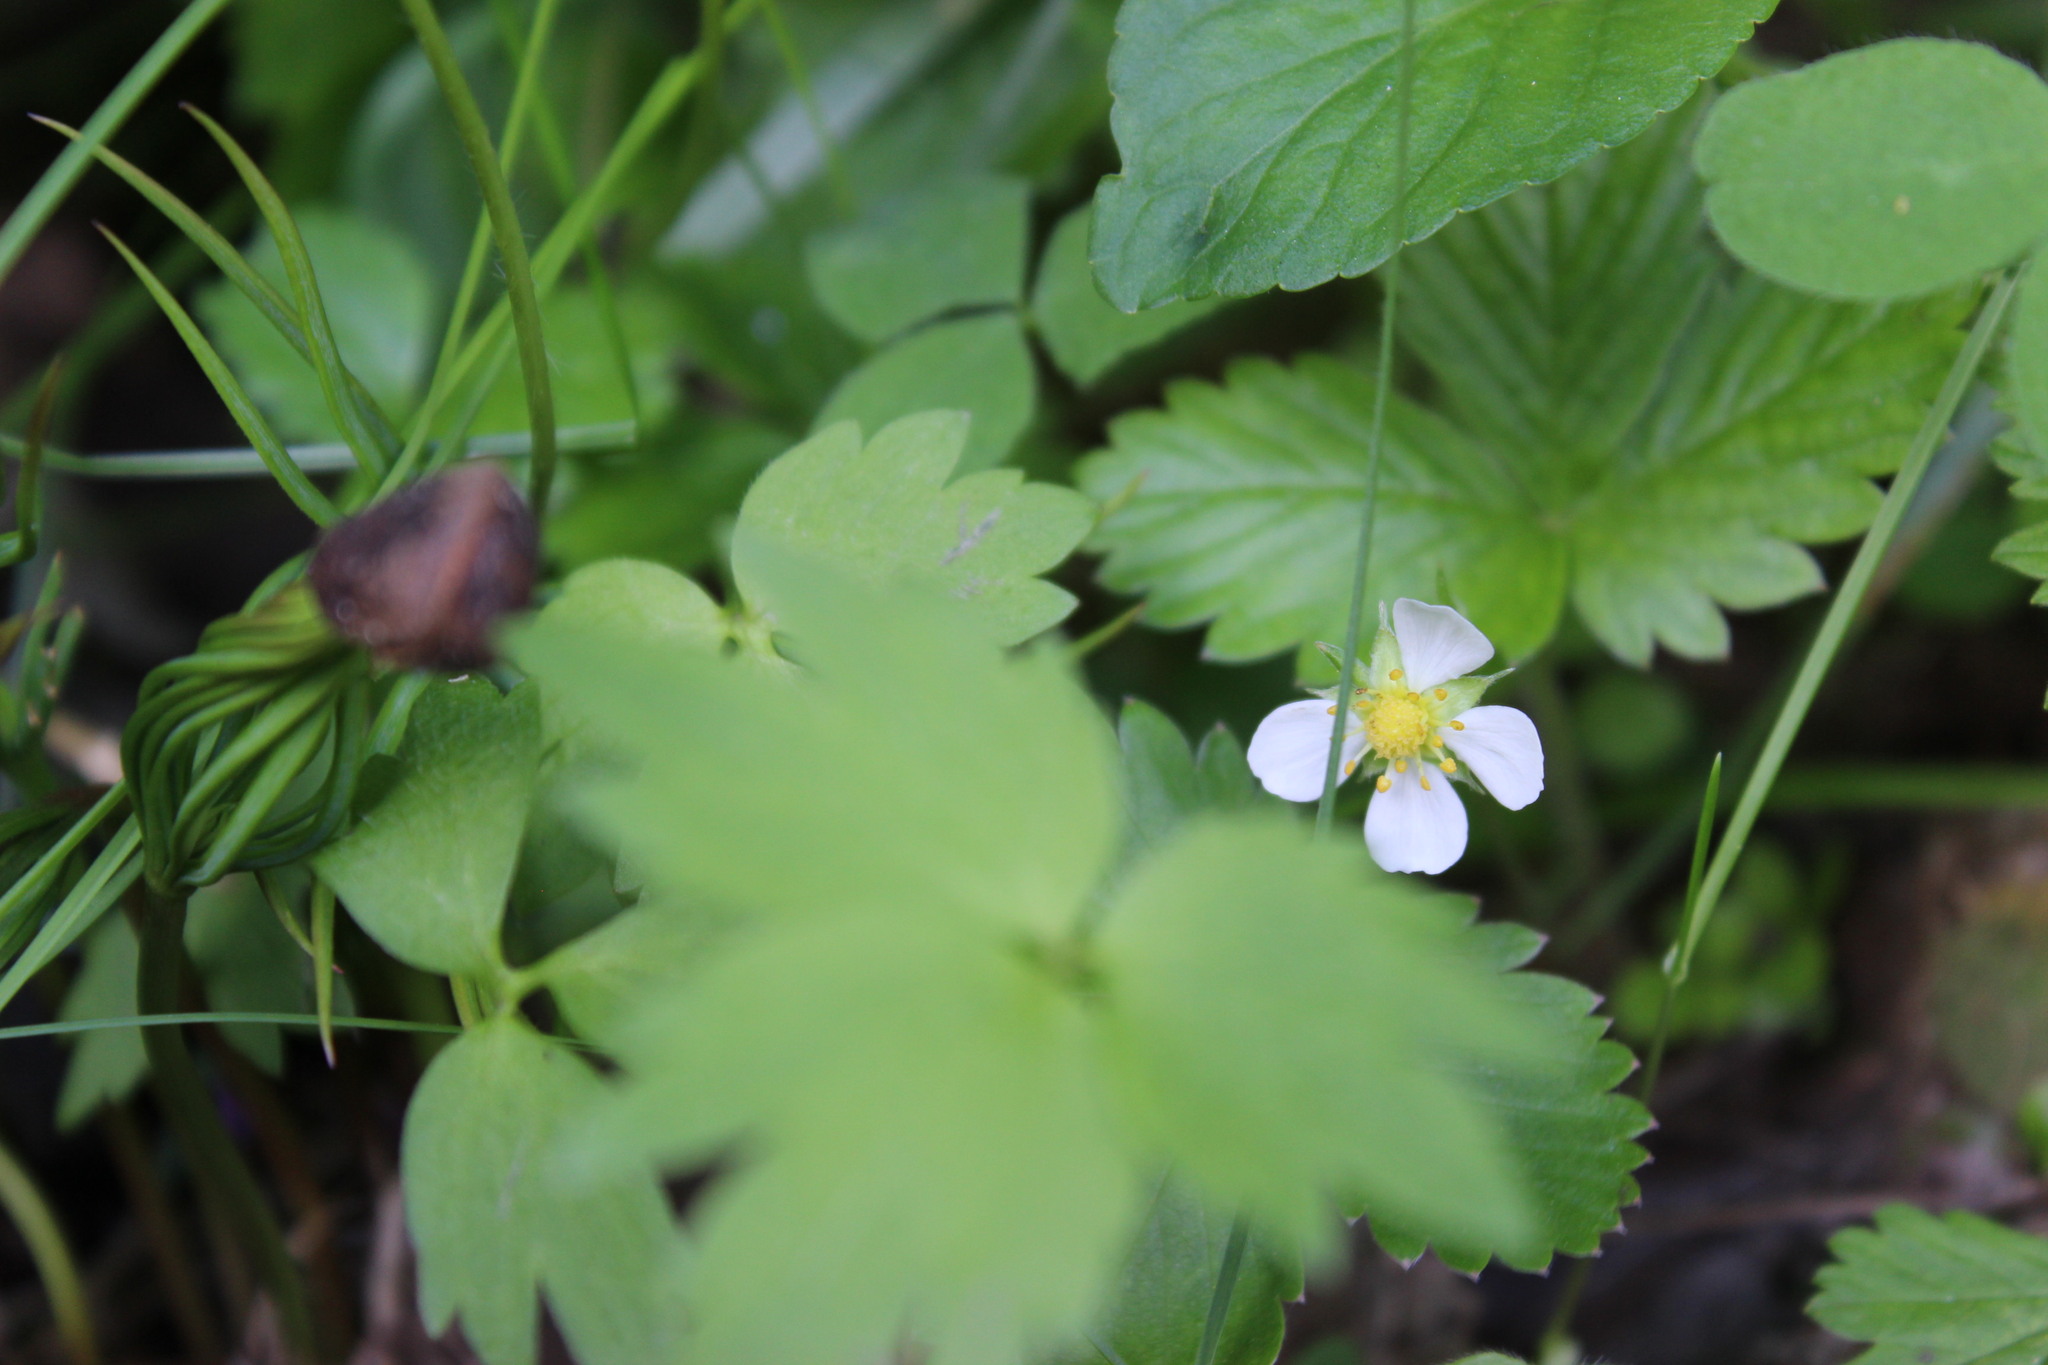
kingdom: Plantae
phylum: Tracheophyta
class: Magnoliopsida
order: Rosales
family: Rosaceae
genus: Fragaria
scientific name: Fragaria vesca
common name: Wild strawberry
